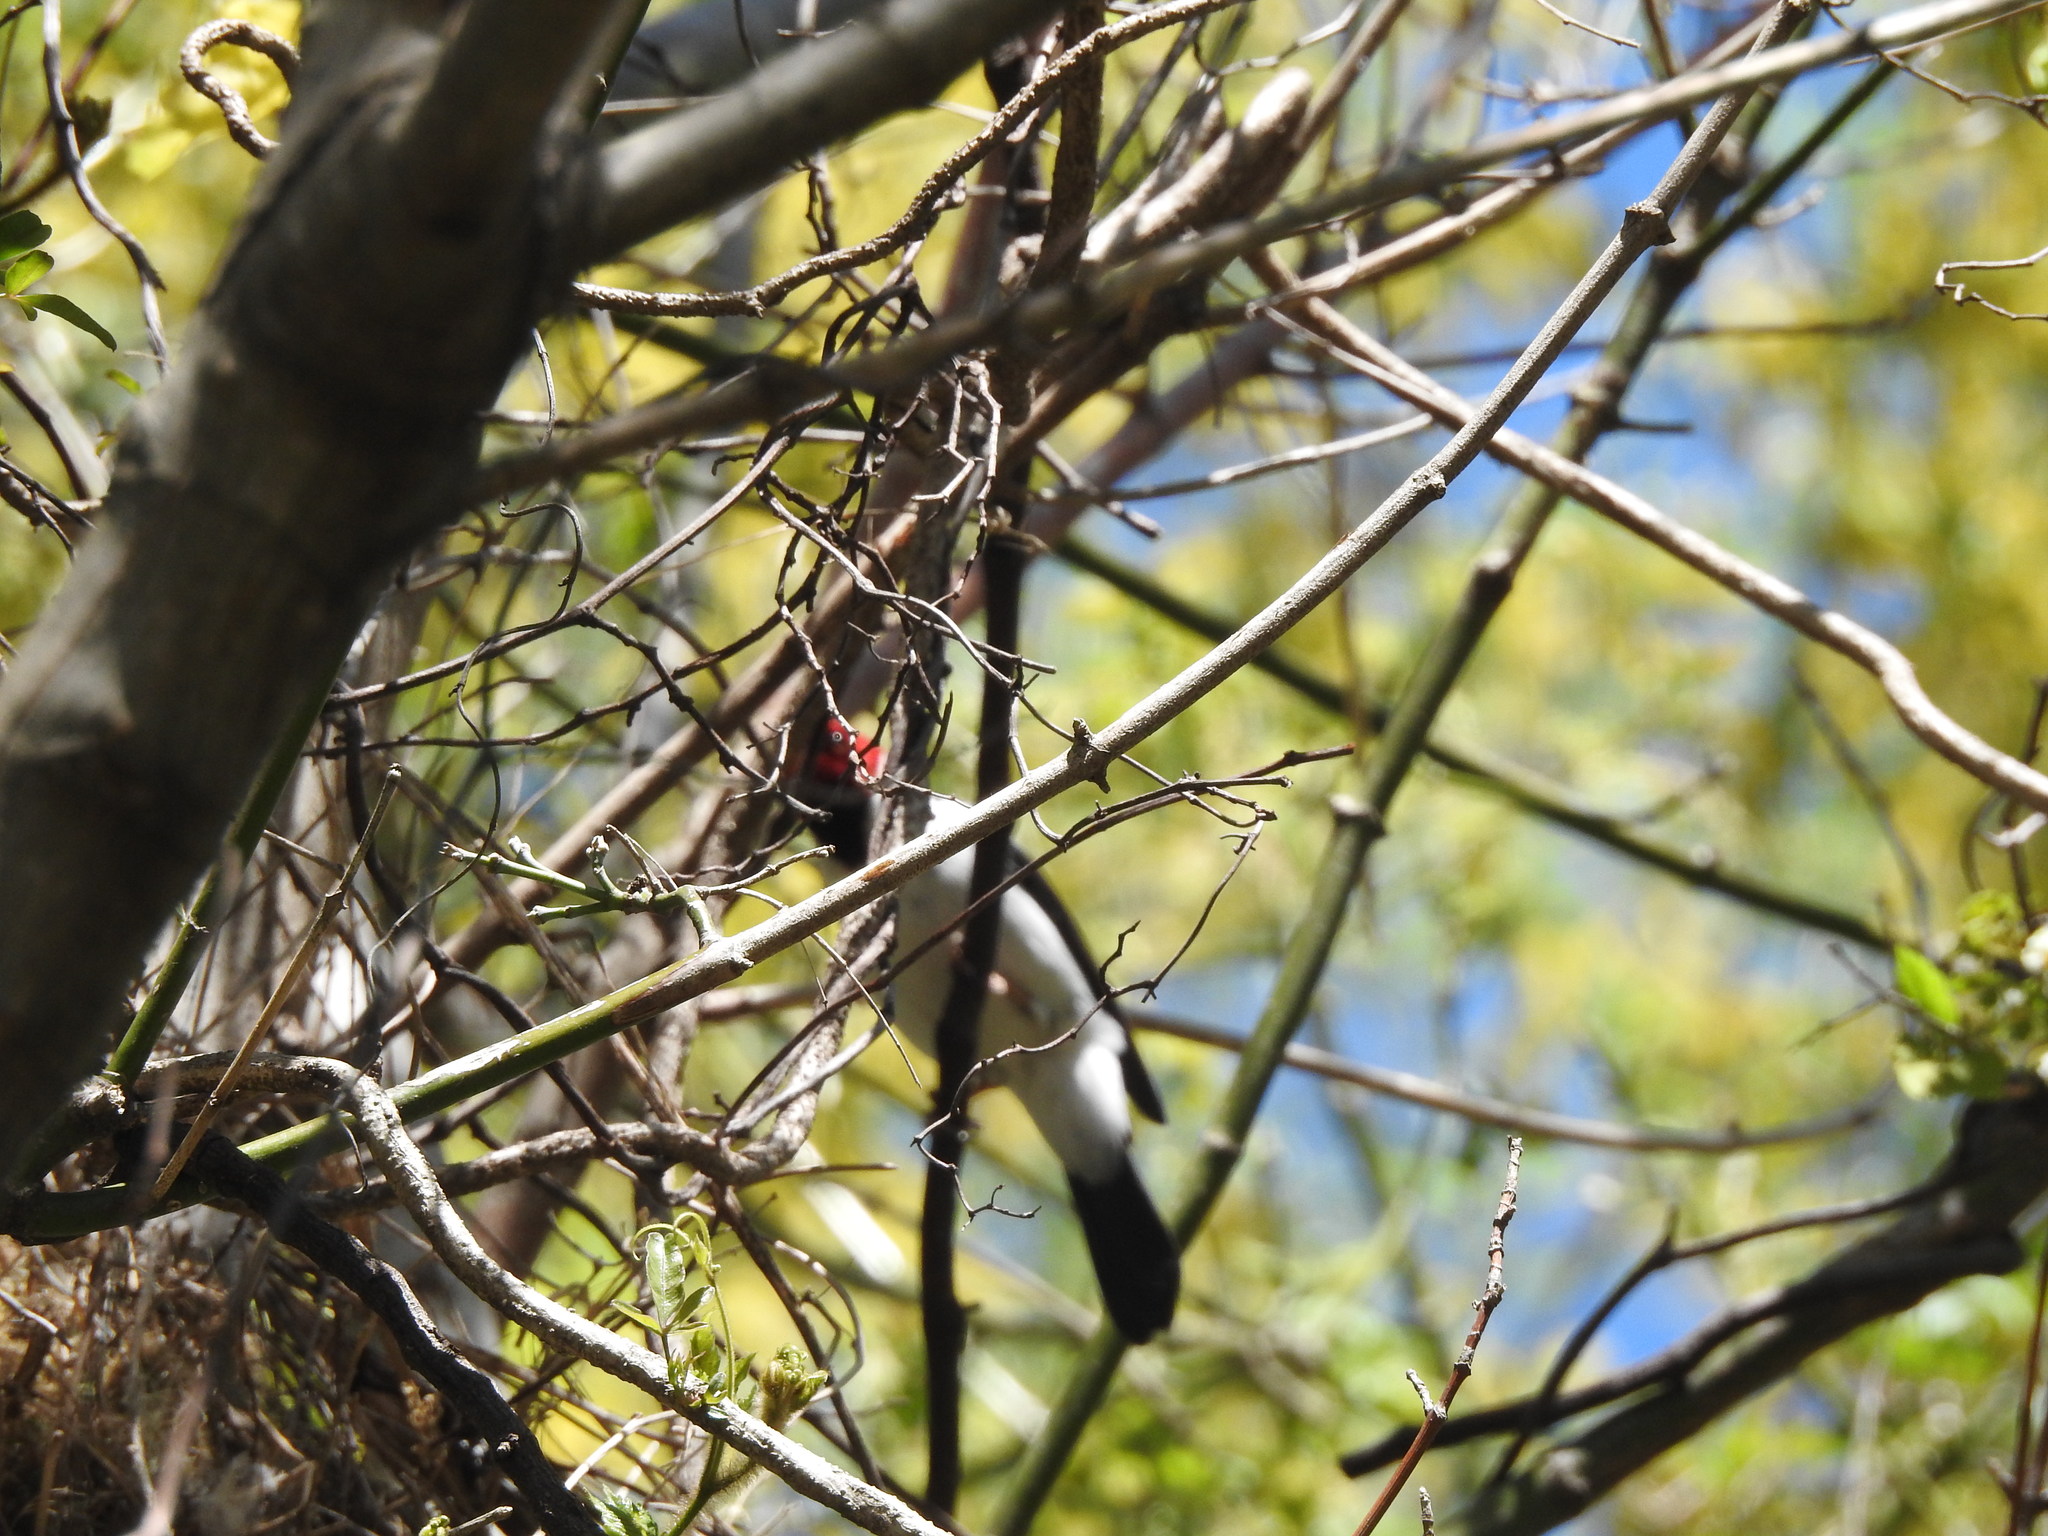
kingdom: Animalia
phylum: Chordata
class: Aves
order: Passeriformes
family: Thraupidae
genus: Paroaria
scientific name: Paroaria capitata
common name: Yellow-billed cardinal
